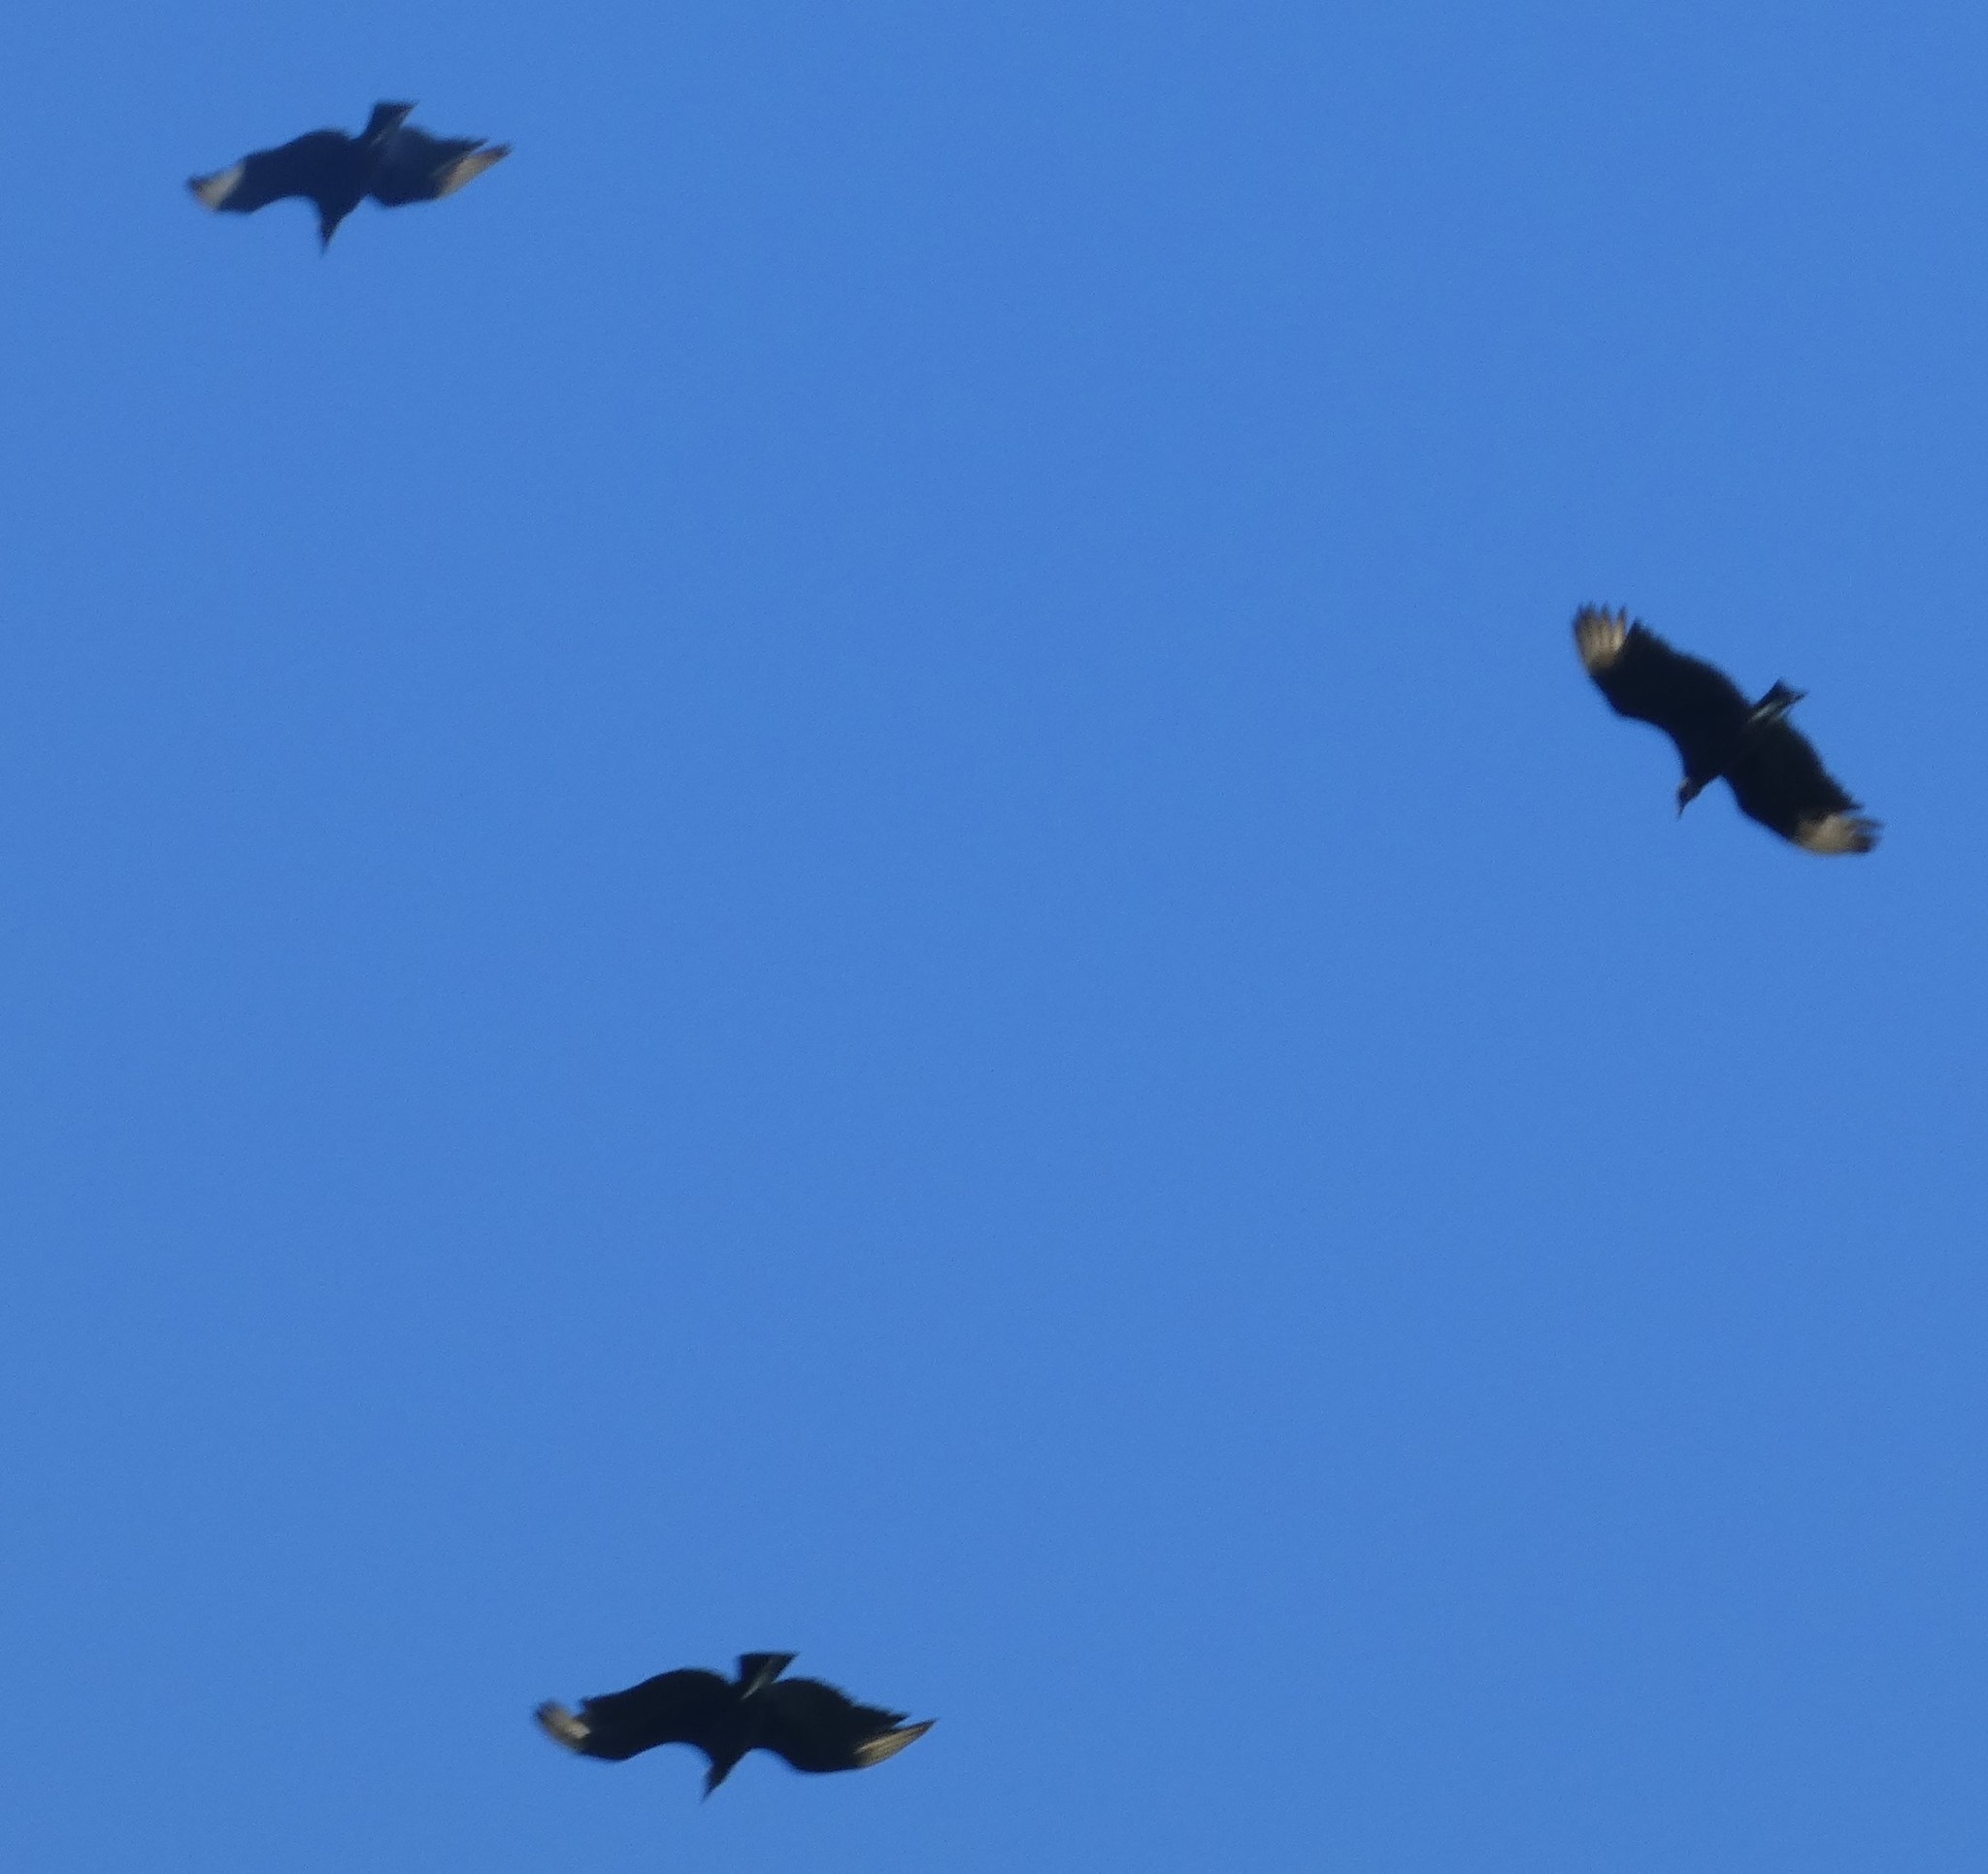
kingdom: Animalia
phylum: Chordata
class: Aves
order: Accipitriformes
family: Cathartidae
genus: Coragyps
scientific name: Coragyps atratus
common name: Black vulture
